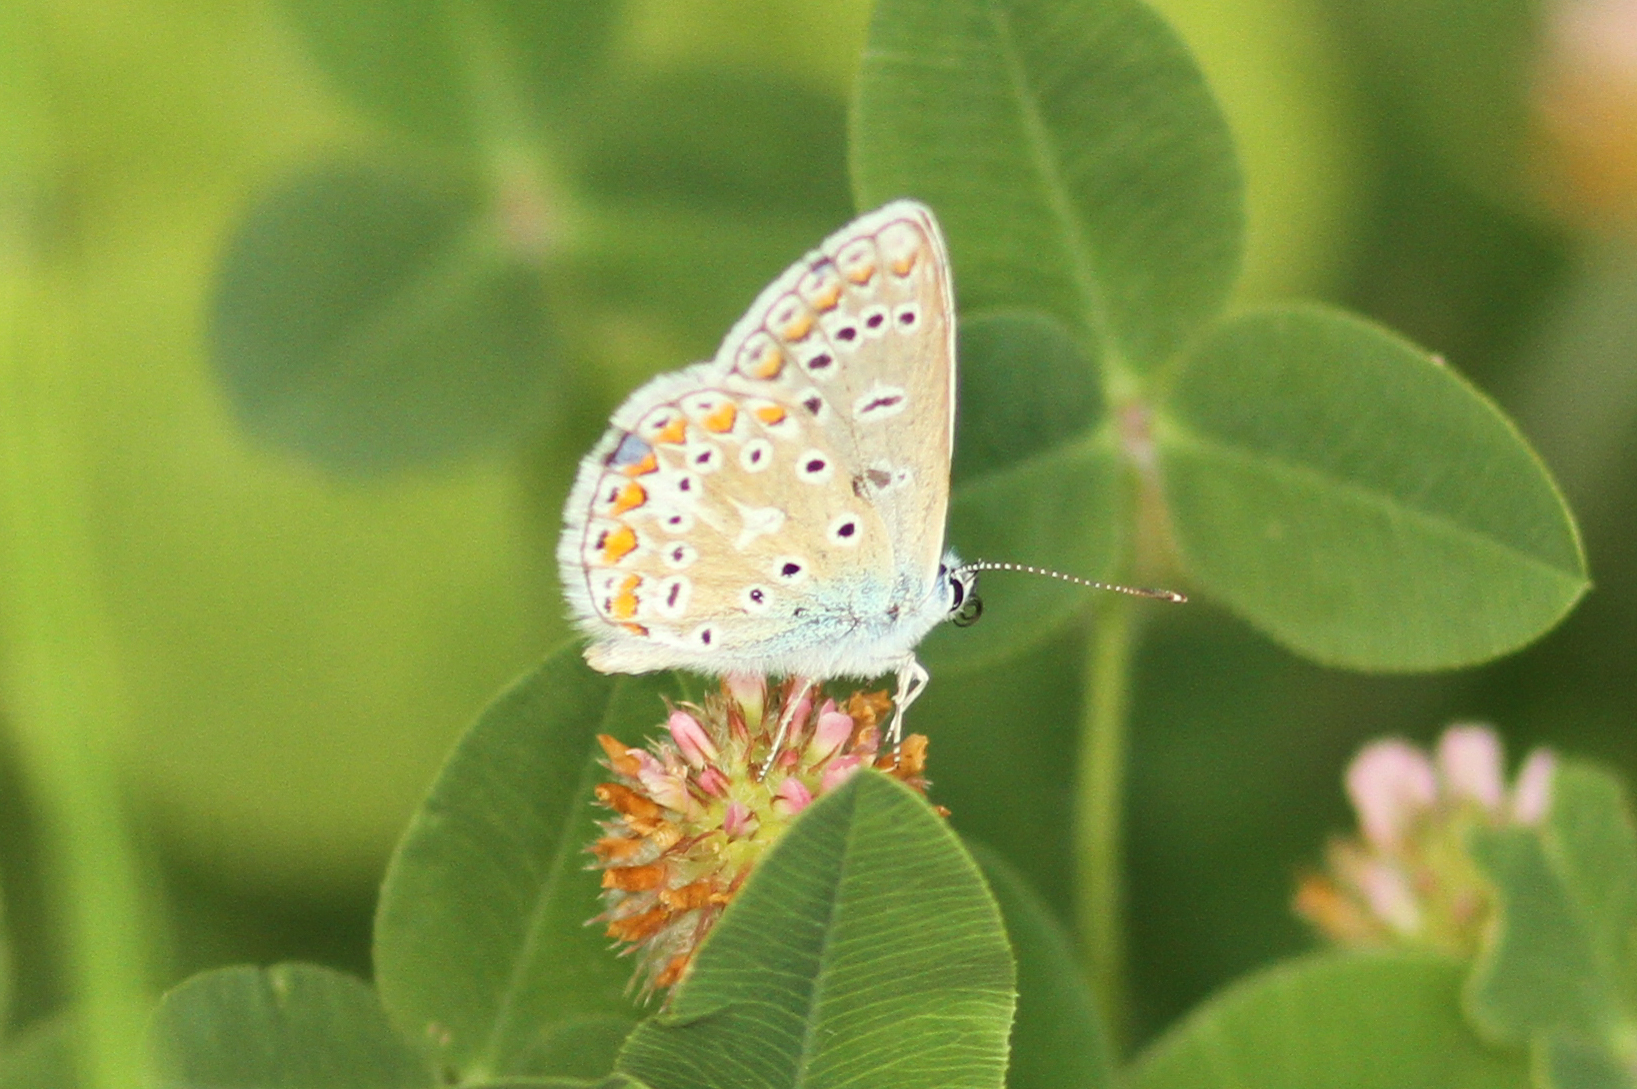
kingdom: Animalia
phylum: Arthropoda
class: Insecta
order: Lepidoptera
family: Lycaenidae
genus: Polyommatus
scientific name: Polyommatus icarus
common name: Common blue
